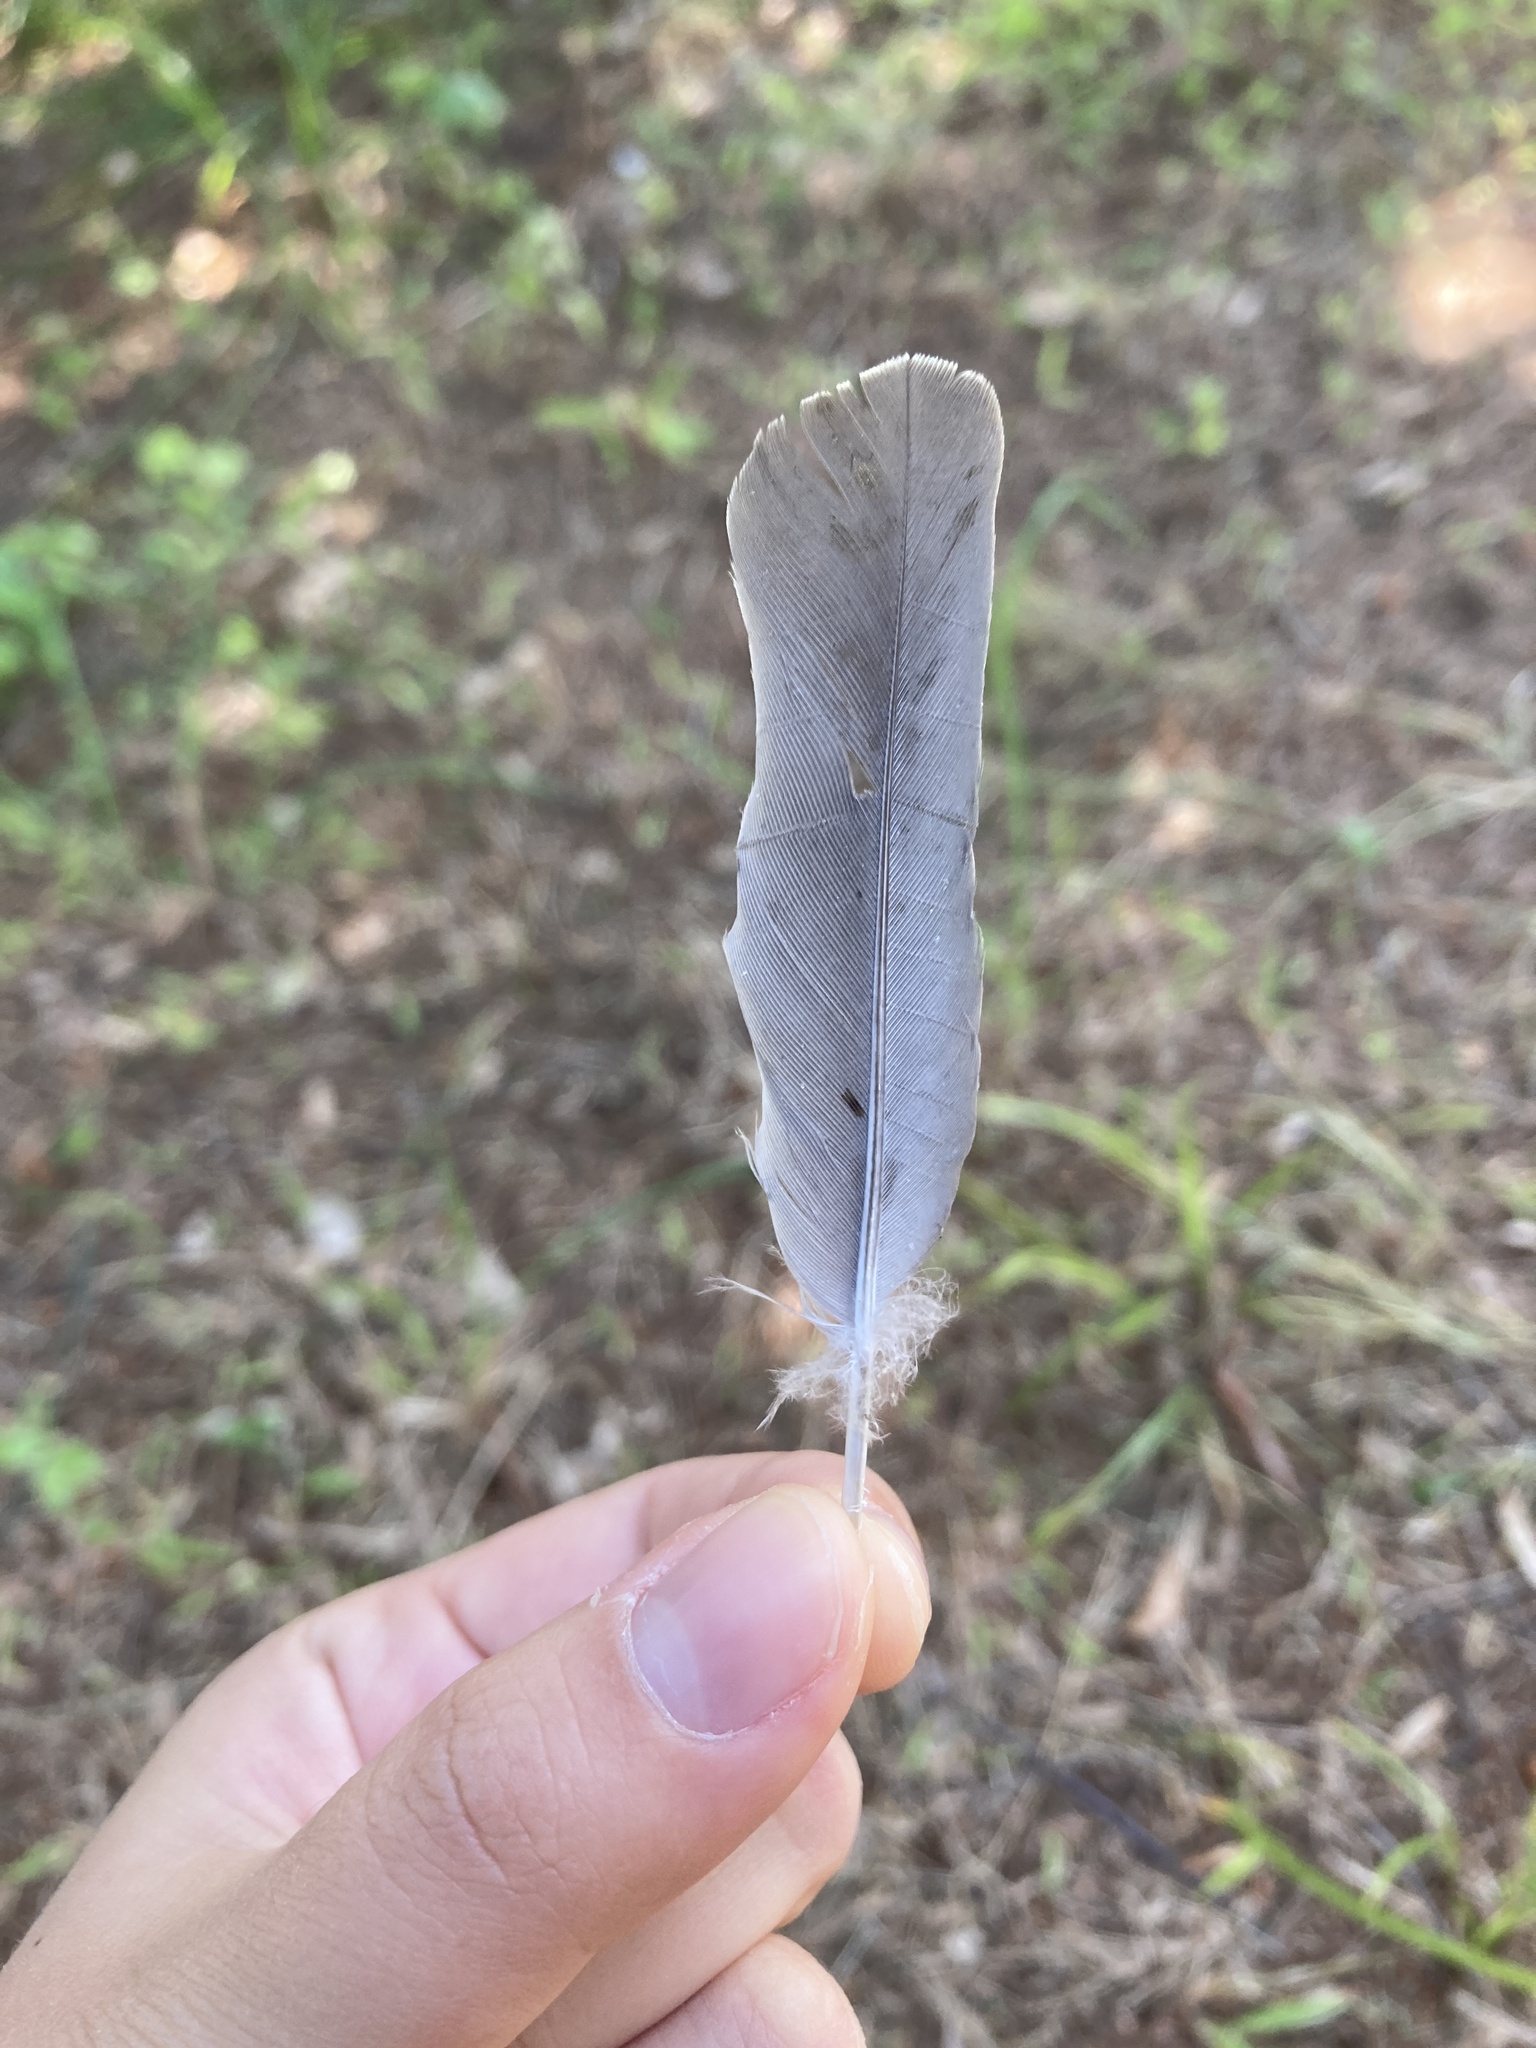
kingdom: Animalia
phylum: Chordata
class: Aves
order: Columbiformes
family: Columbidae
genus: Zenaida
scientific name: Zenaida macroura
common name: Mourning dove
